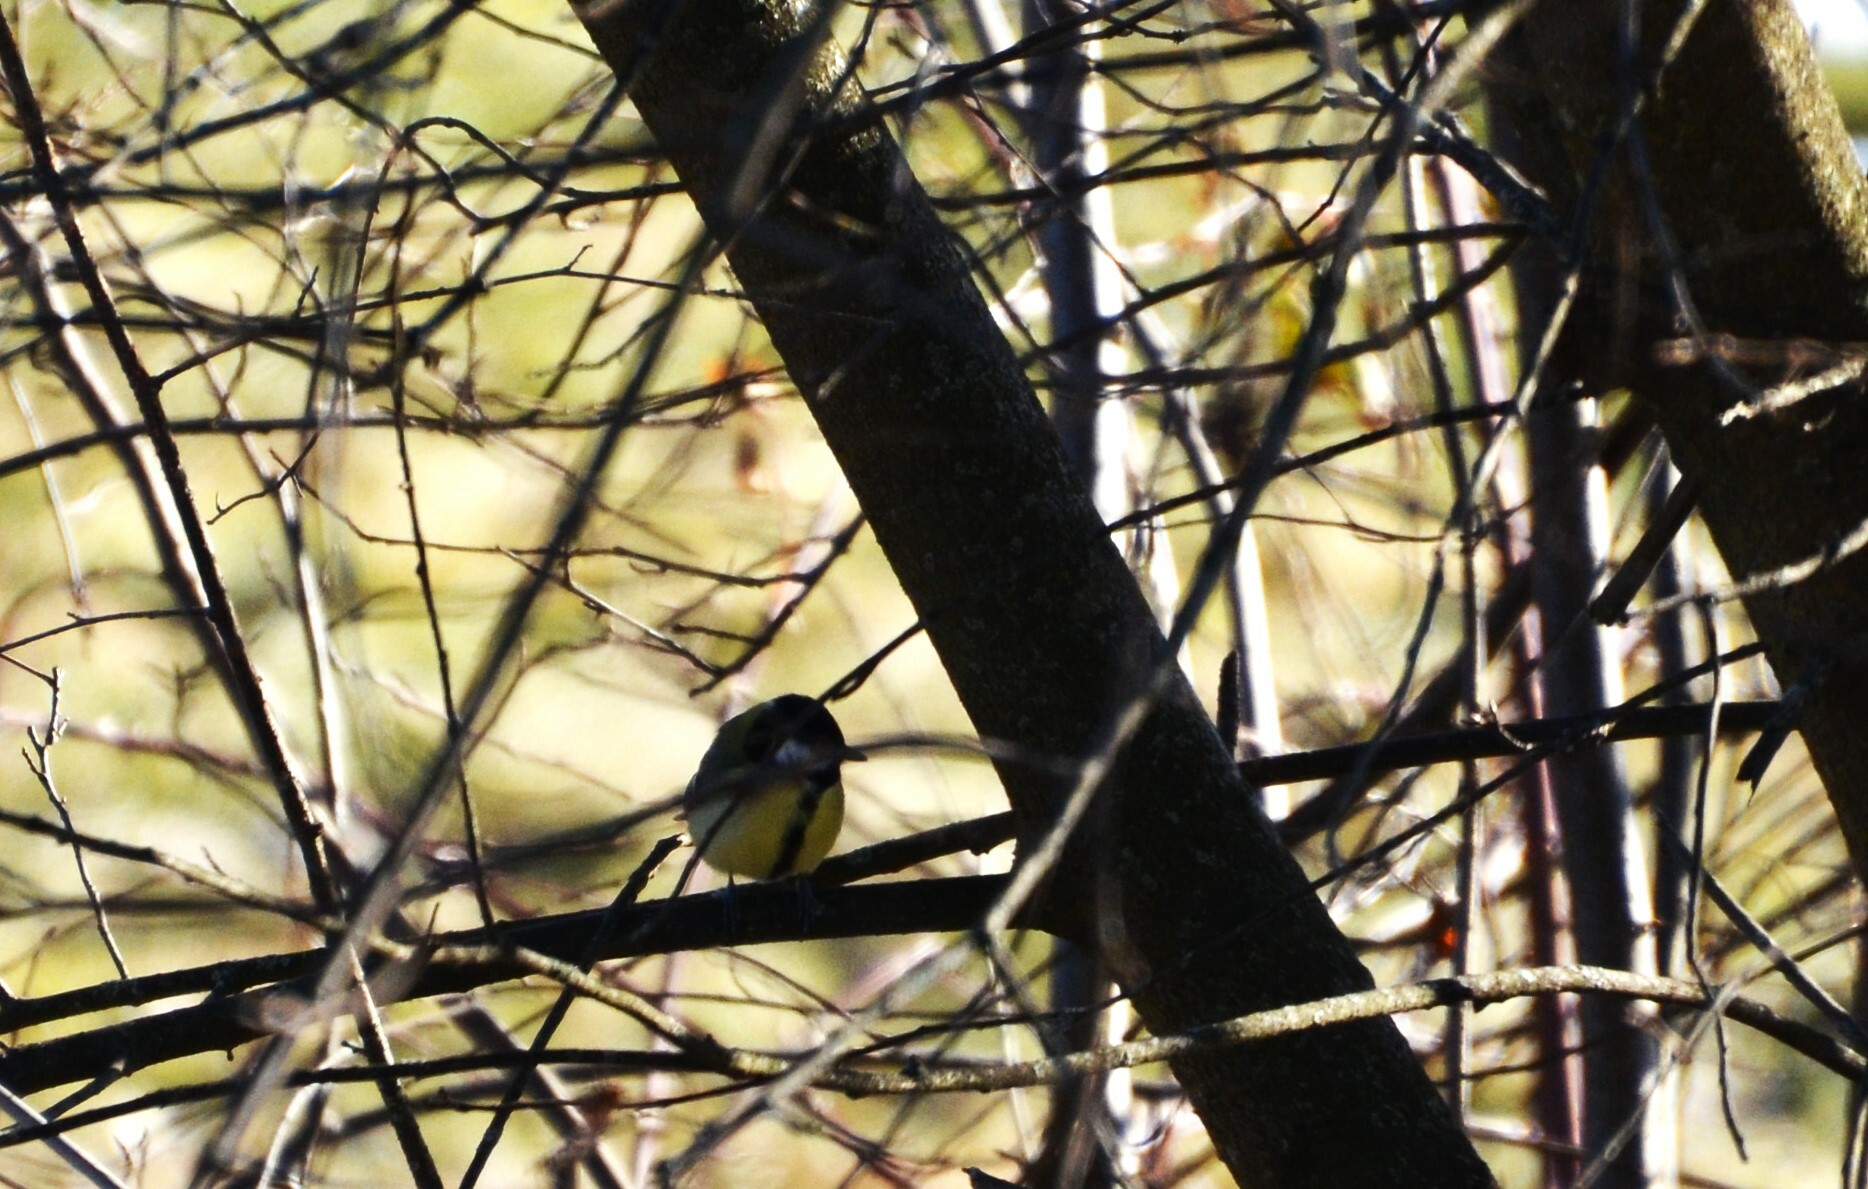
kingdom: Animalia
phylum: Chordata
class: Aves
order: Passeriformes
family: Paridae
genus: Parus
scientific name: Parus major
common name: Great tit
